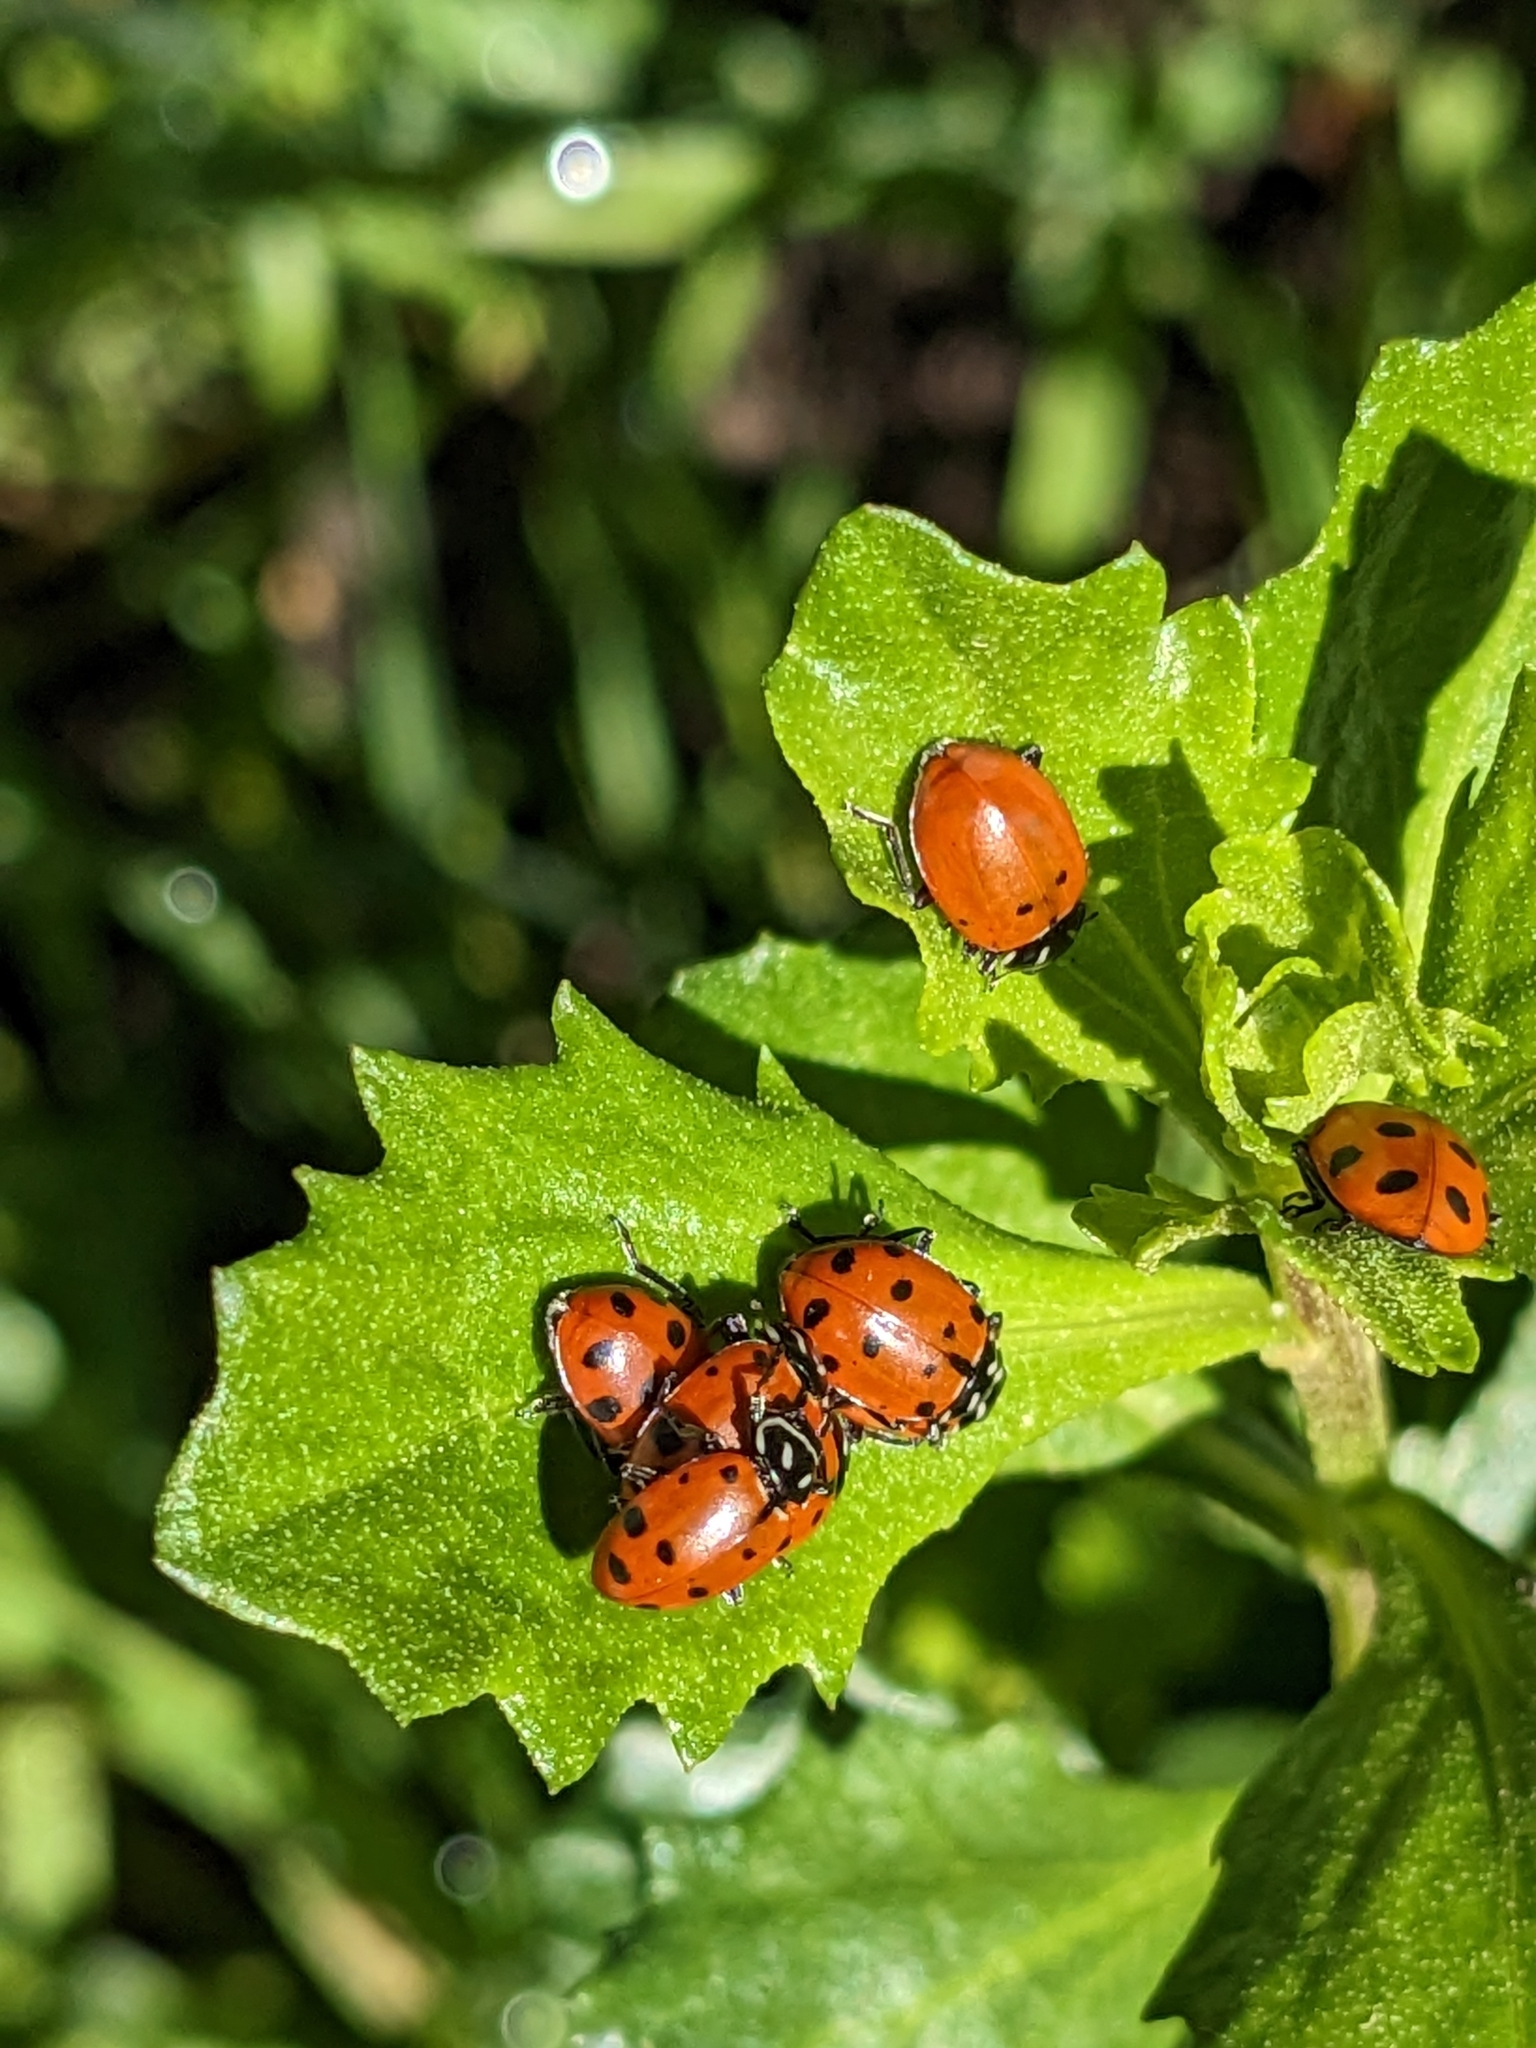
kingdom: Animalia
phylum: Arthropoda
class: Insecta
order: Coleoptera
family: Coccinellidae
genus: Hippodamia
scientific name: Hippodamia convergens
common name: Convergent lady beetle
